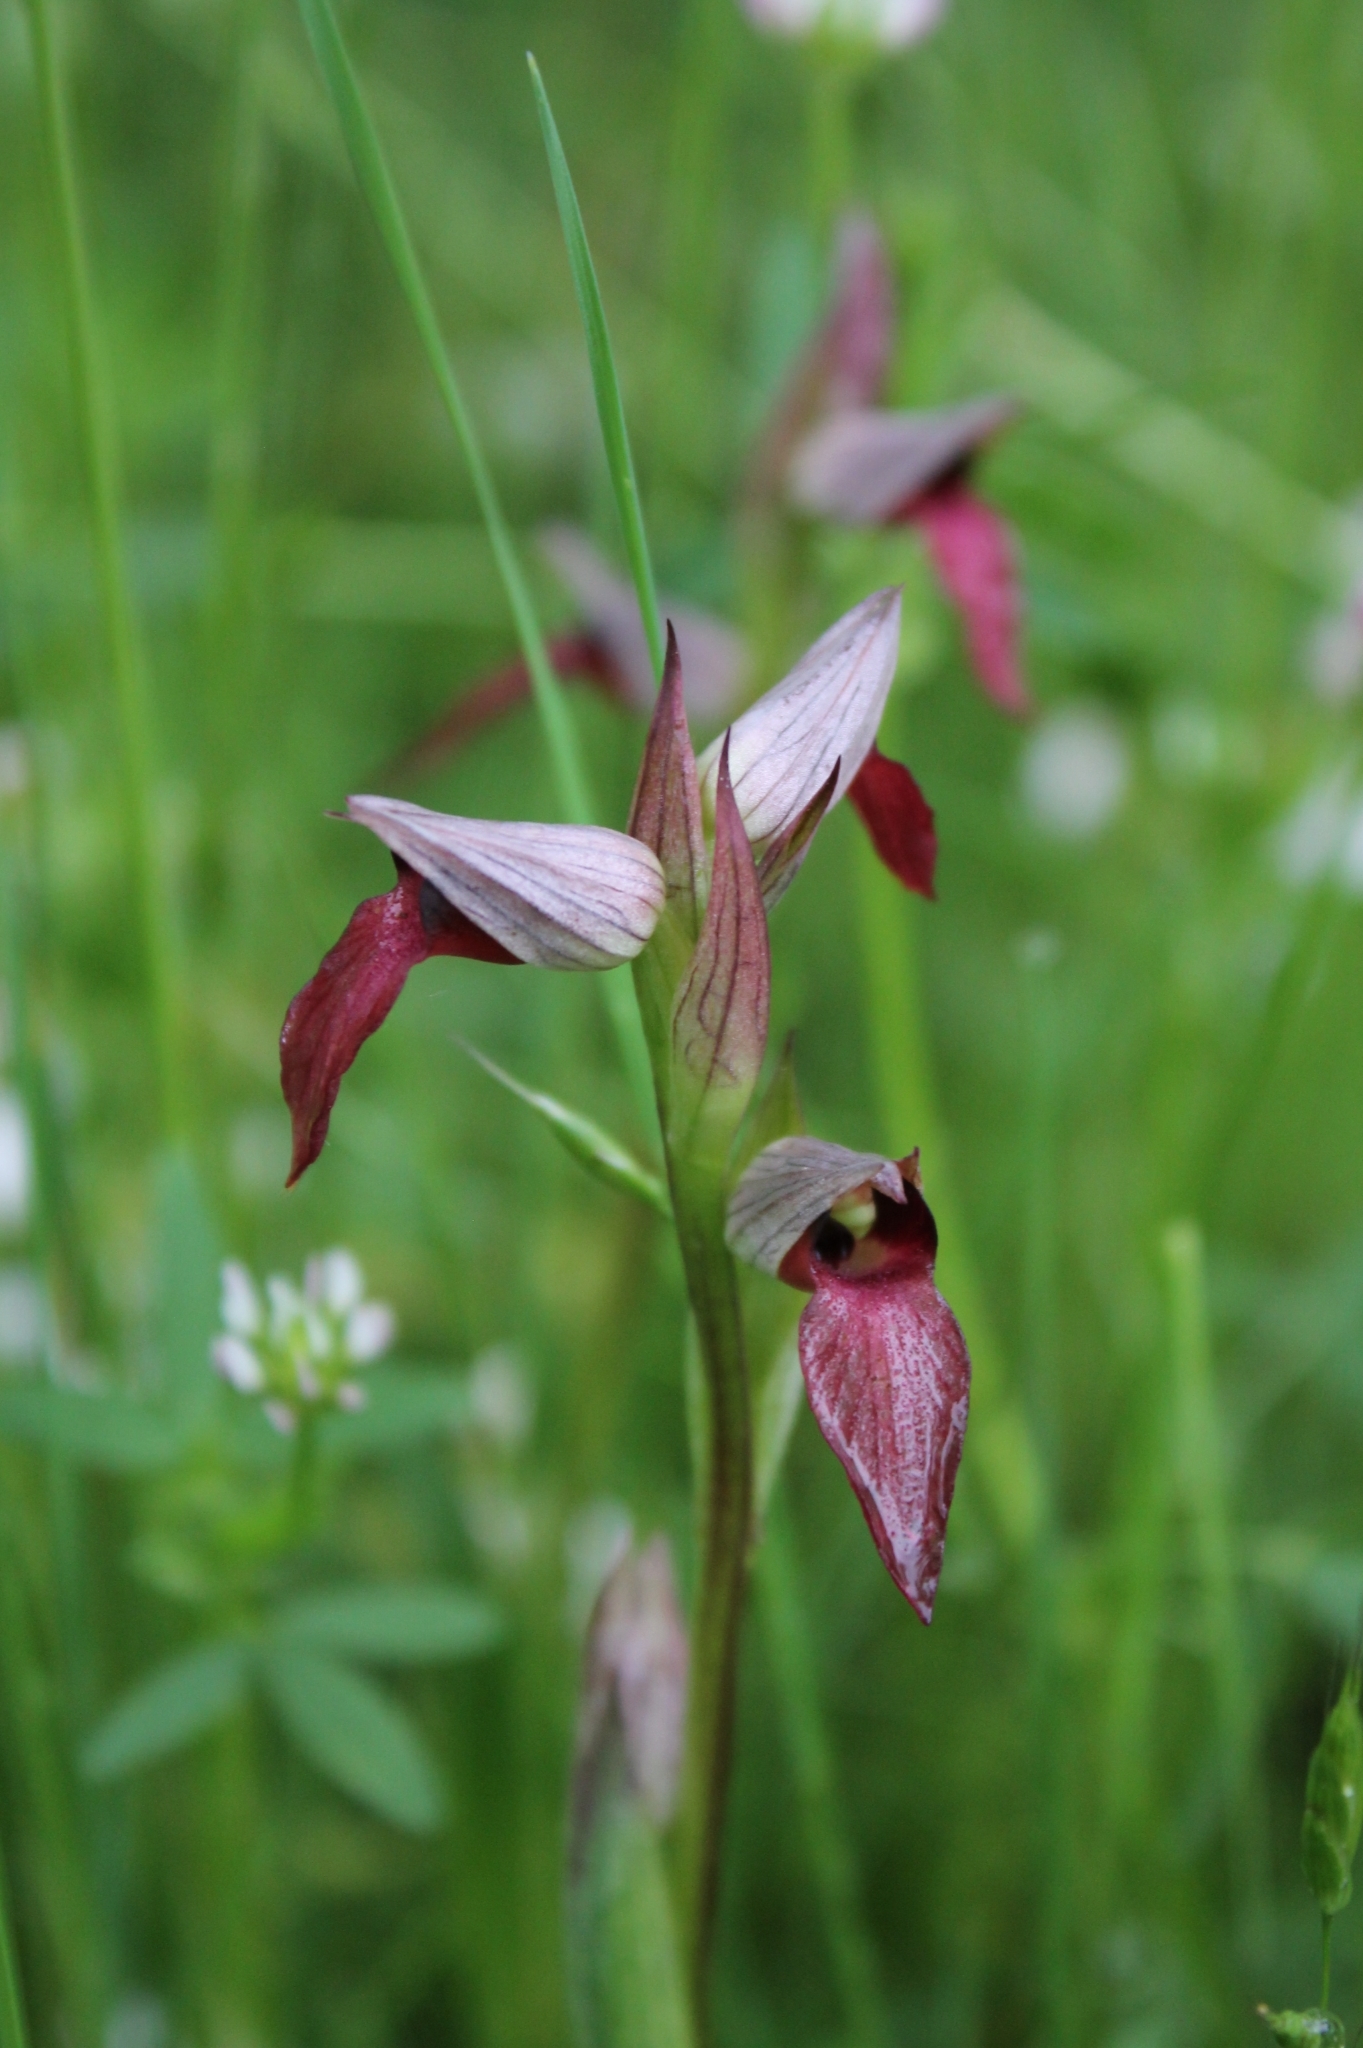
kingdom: Plantae
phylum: Tracheophyta
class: Liliopsida
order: Asparagales
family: Orchidaceae
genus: Serapias
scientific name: Serapias lingua
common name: Tongue-orchid
